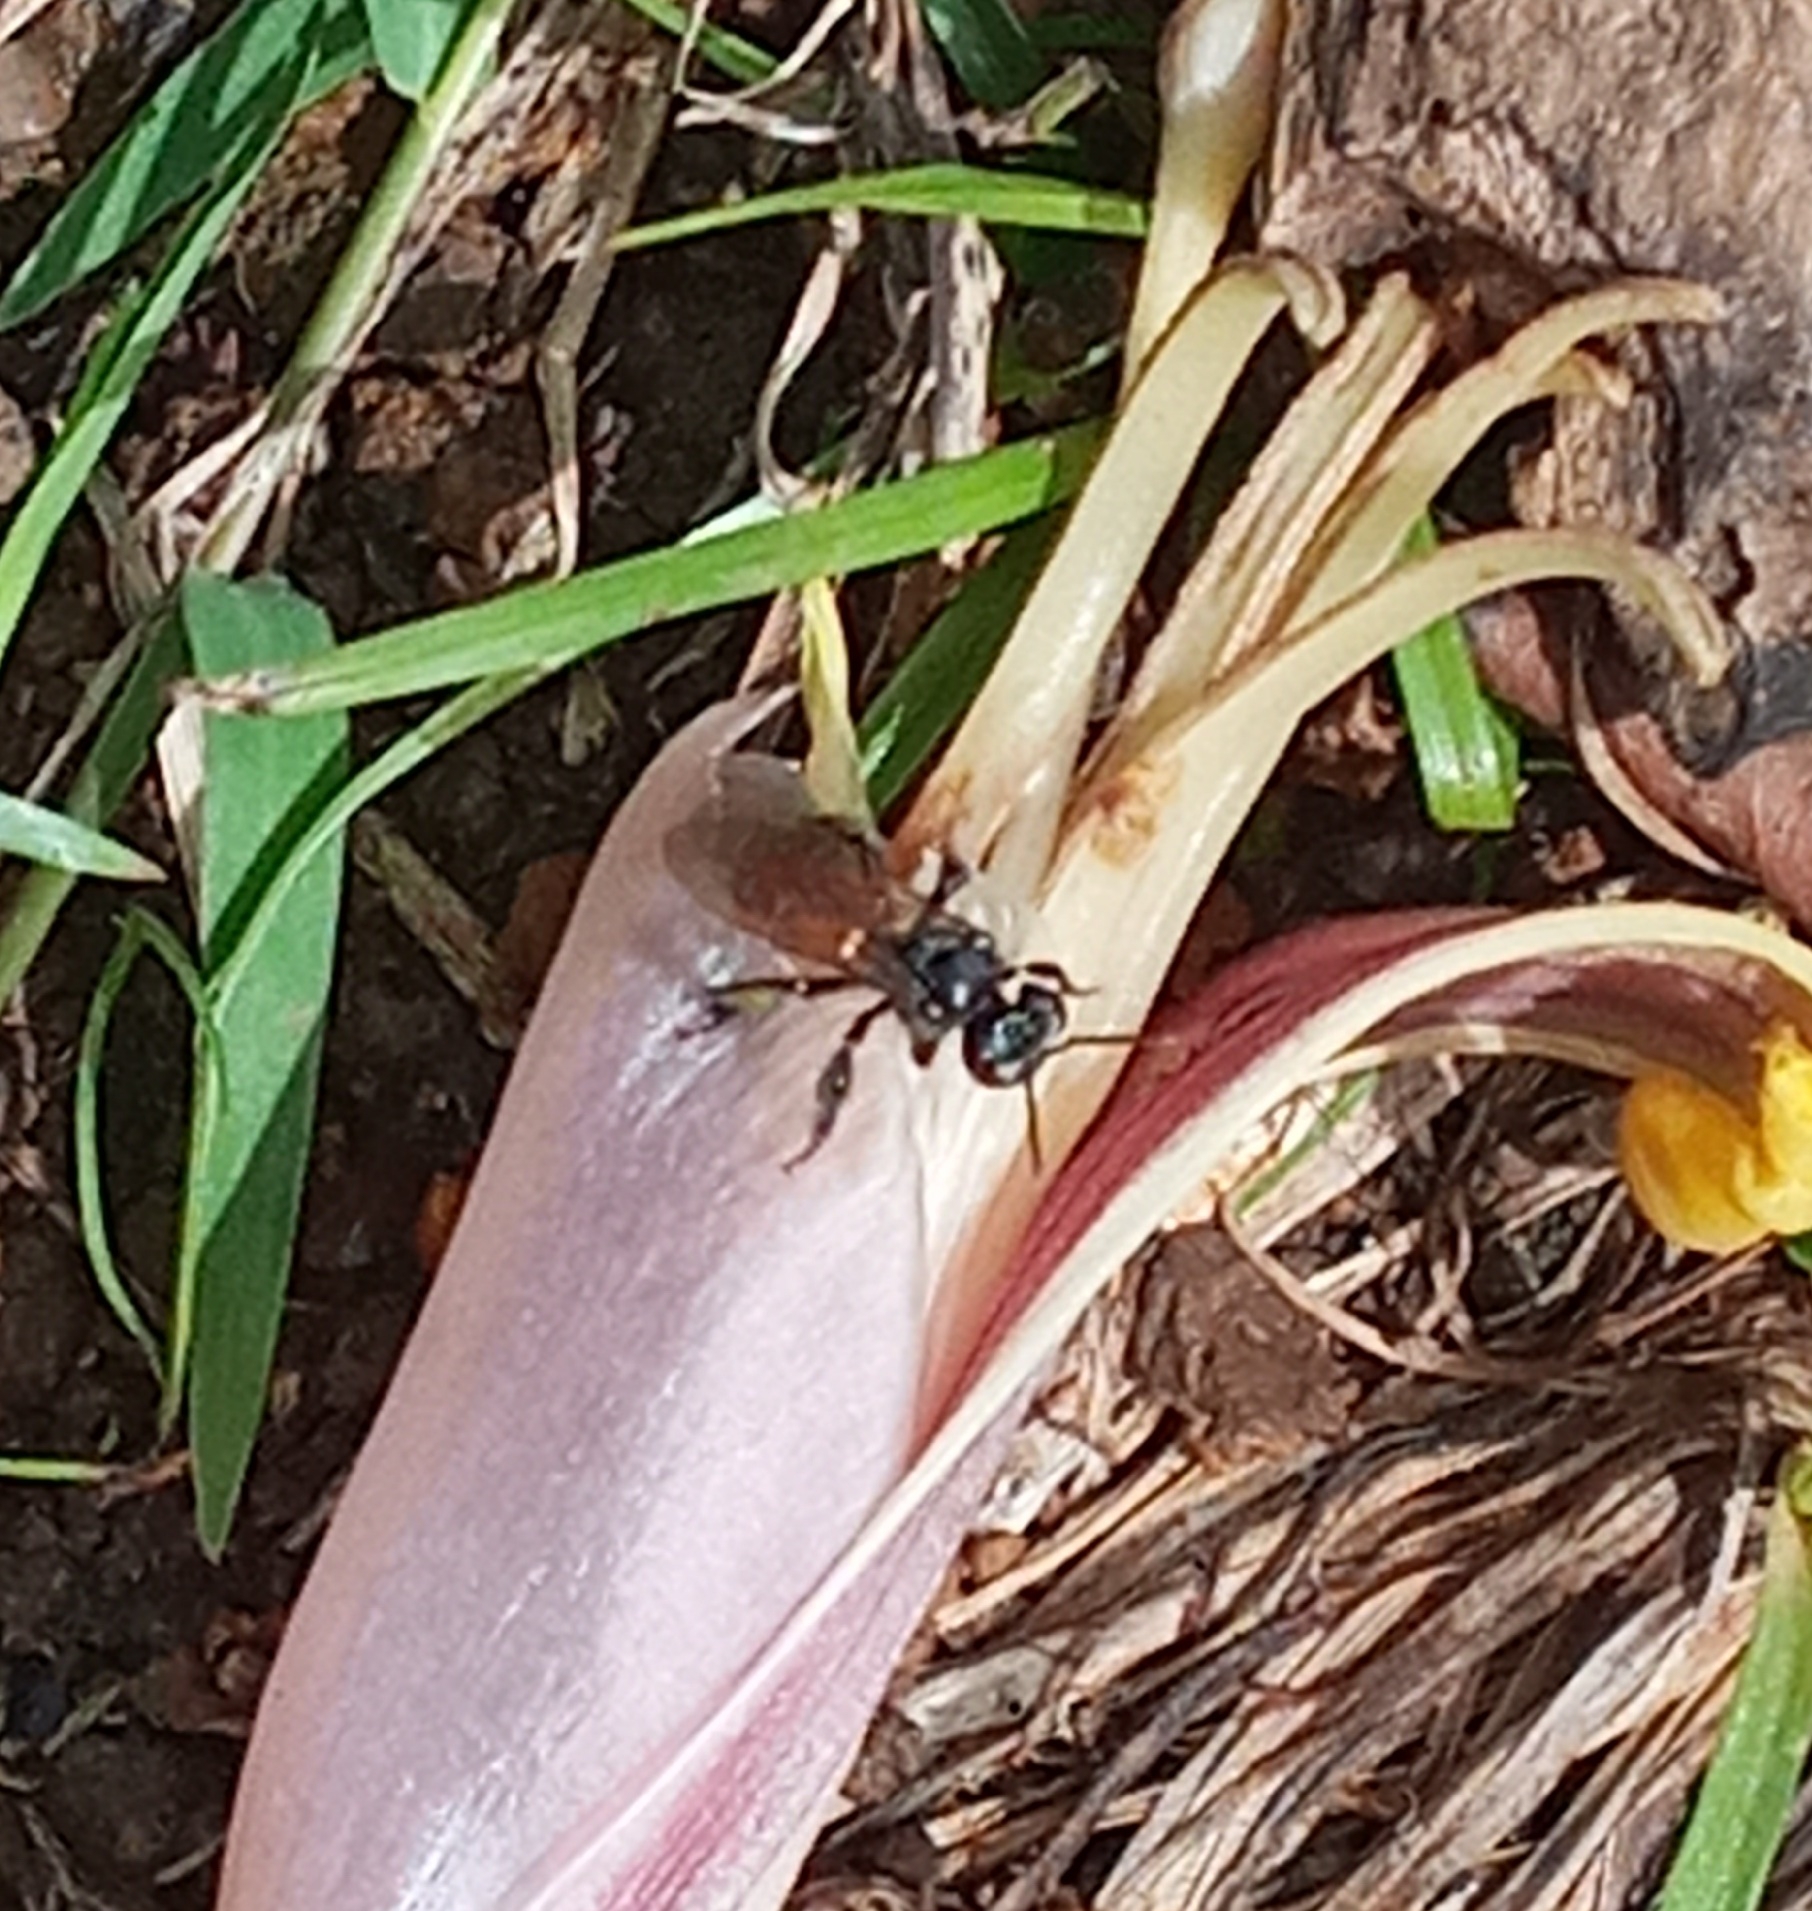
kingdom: Animalia
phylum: Arthropoda
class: Insecta
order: Hymenoptera
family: Apidae
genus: Trigona
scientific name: Trigona fulviventris
